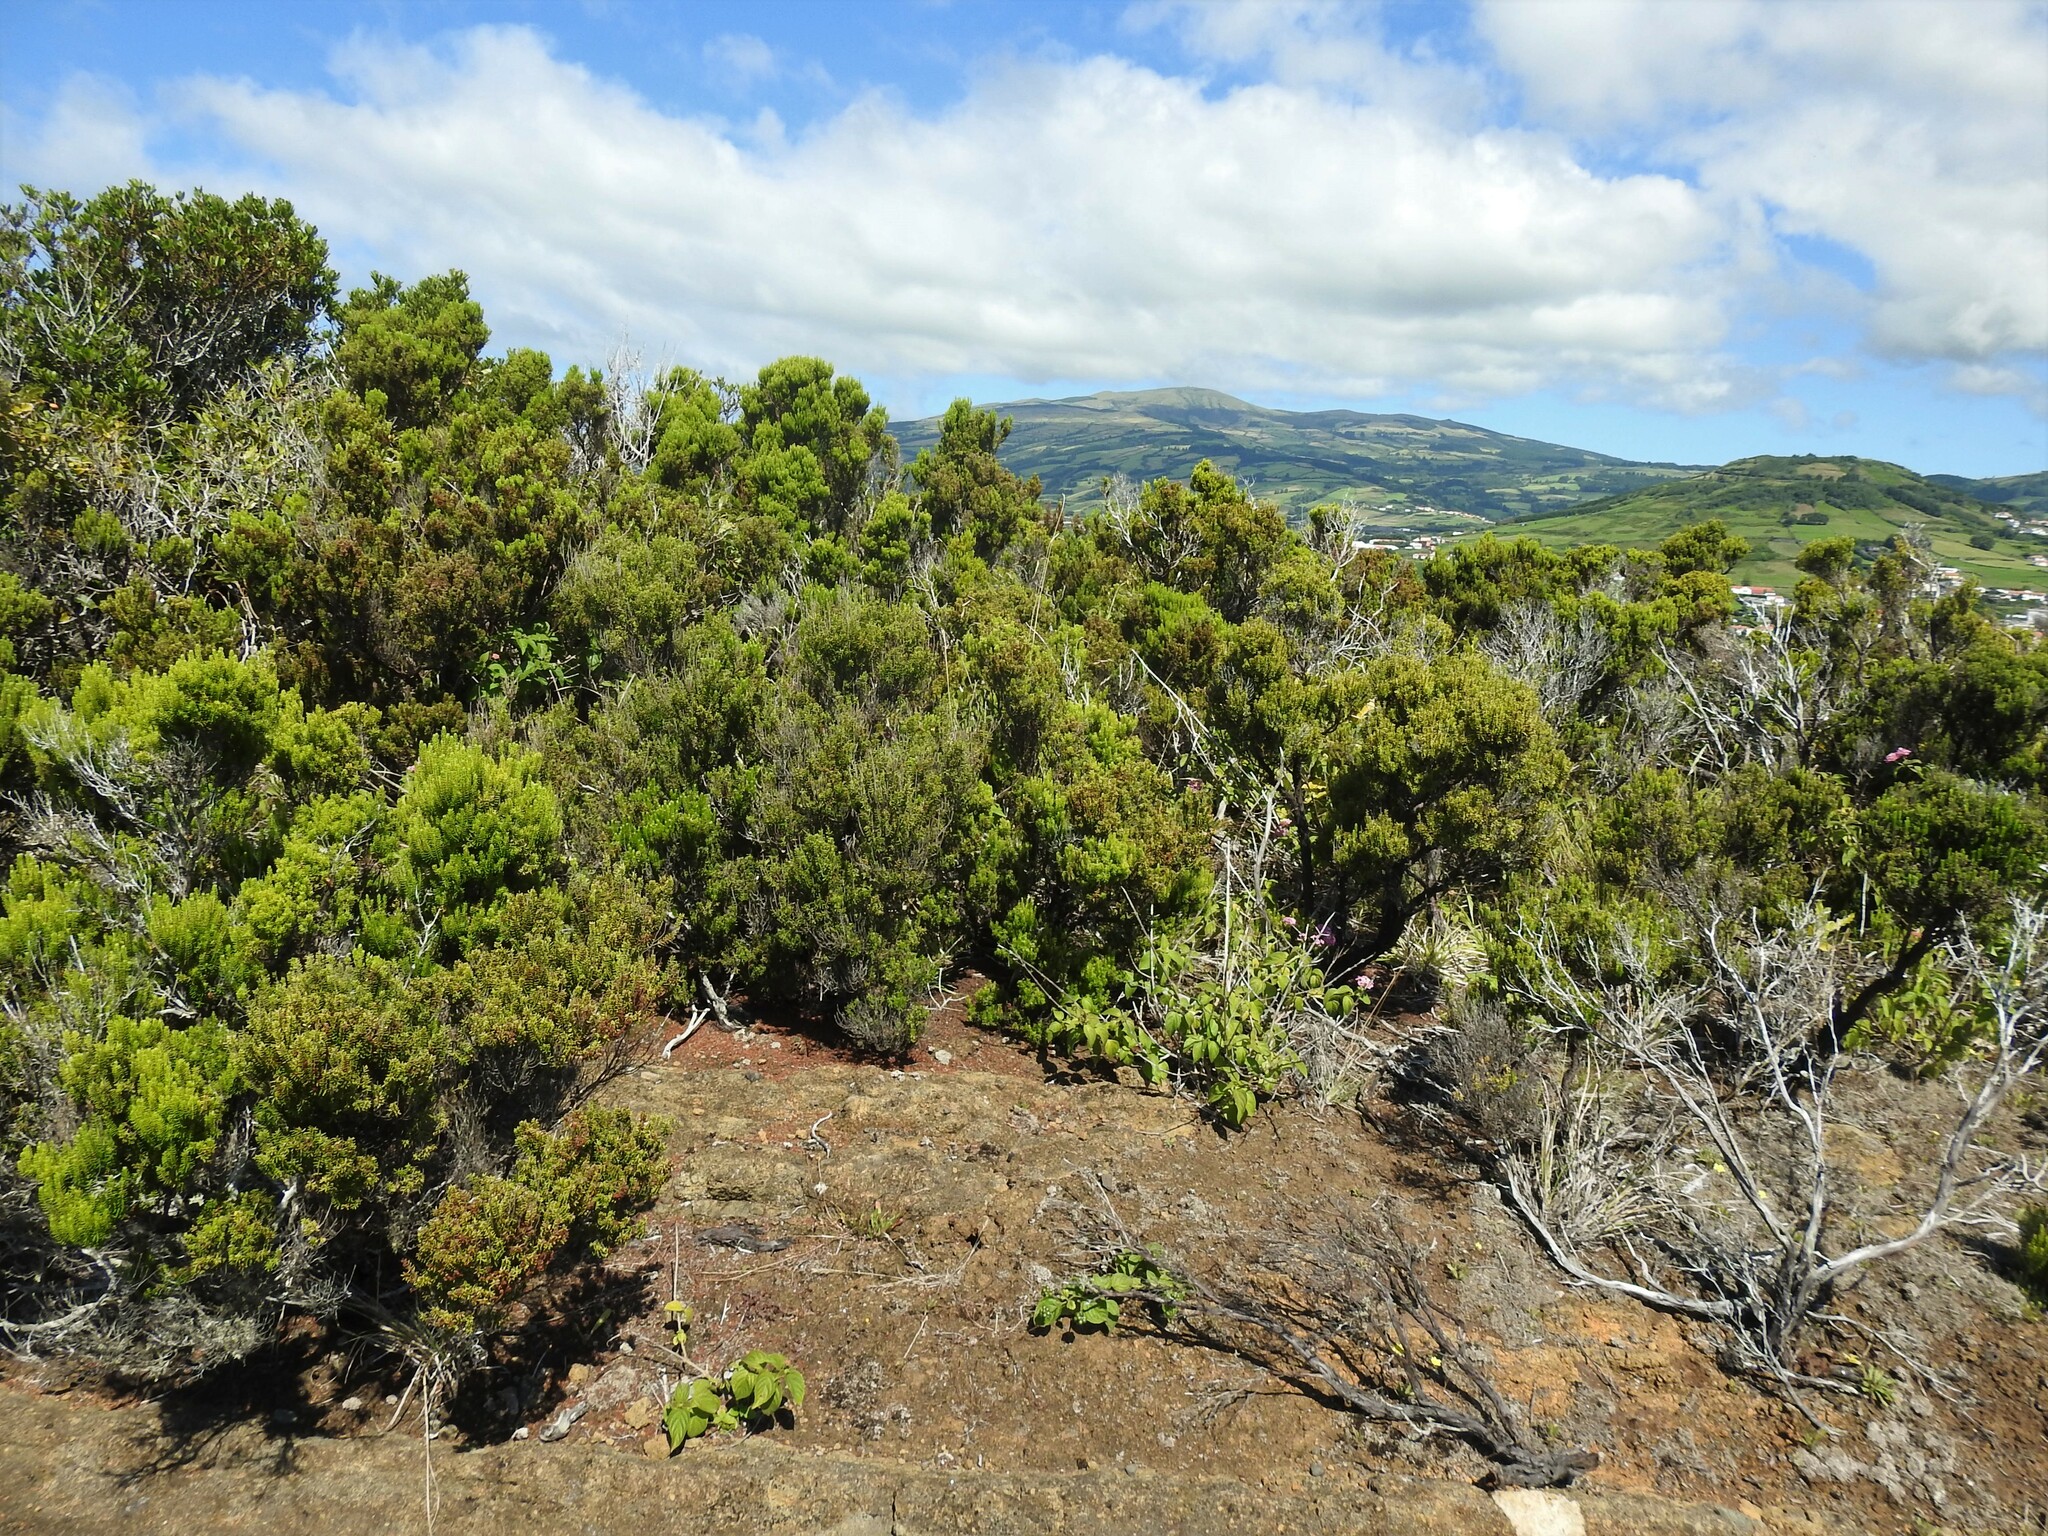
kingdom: Plantae
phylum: Tracheophyta
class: Magnoliopsida
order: Ericales
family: Ericaceae
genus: Erica
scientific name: Erica azorica
